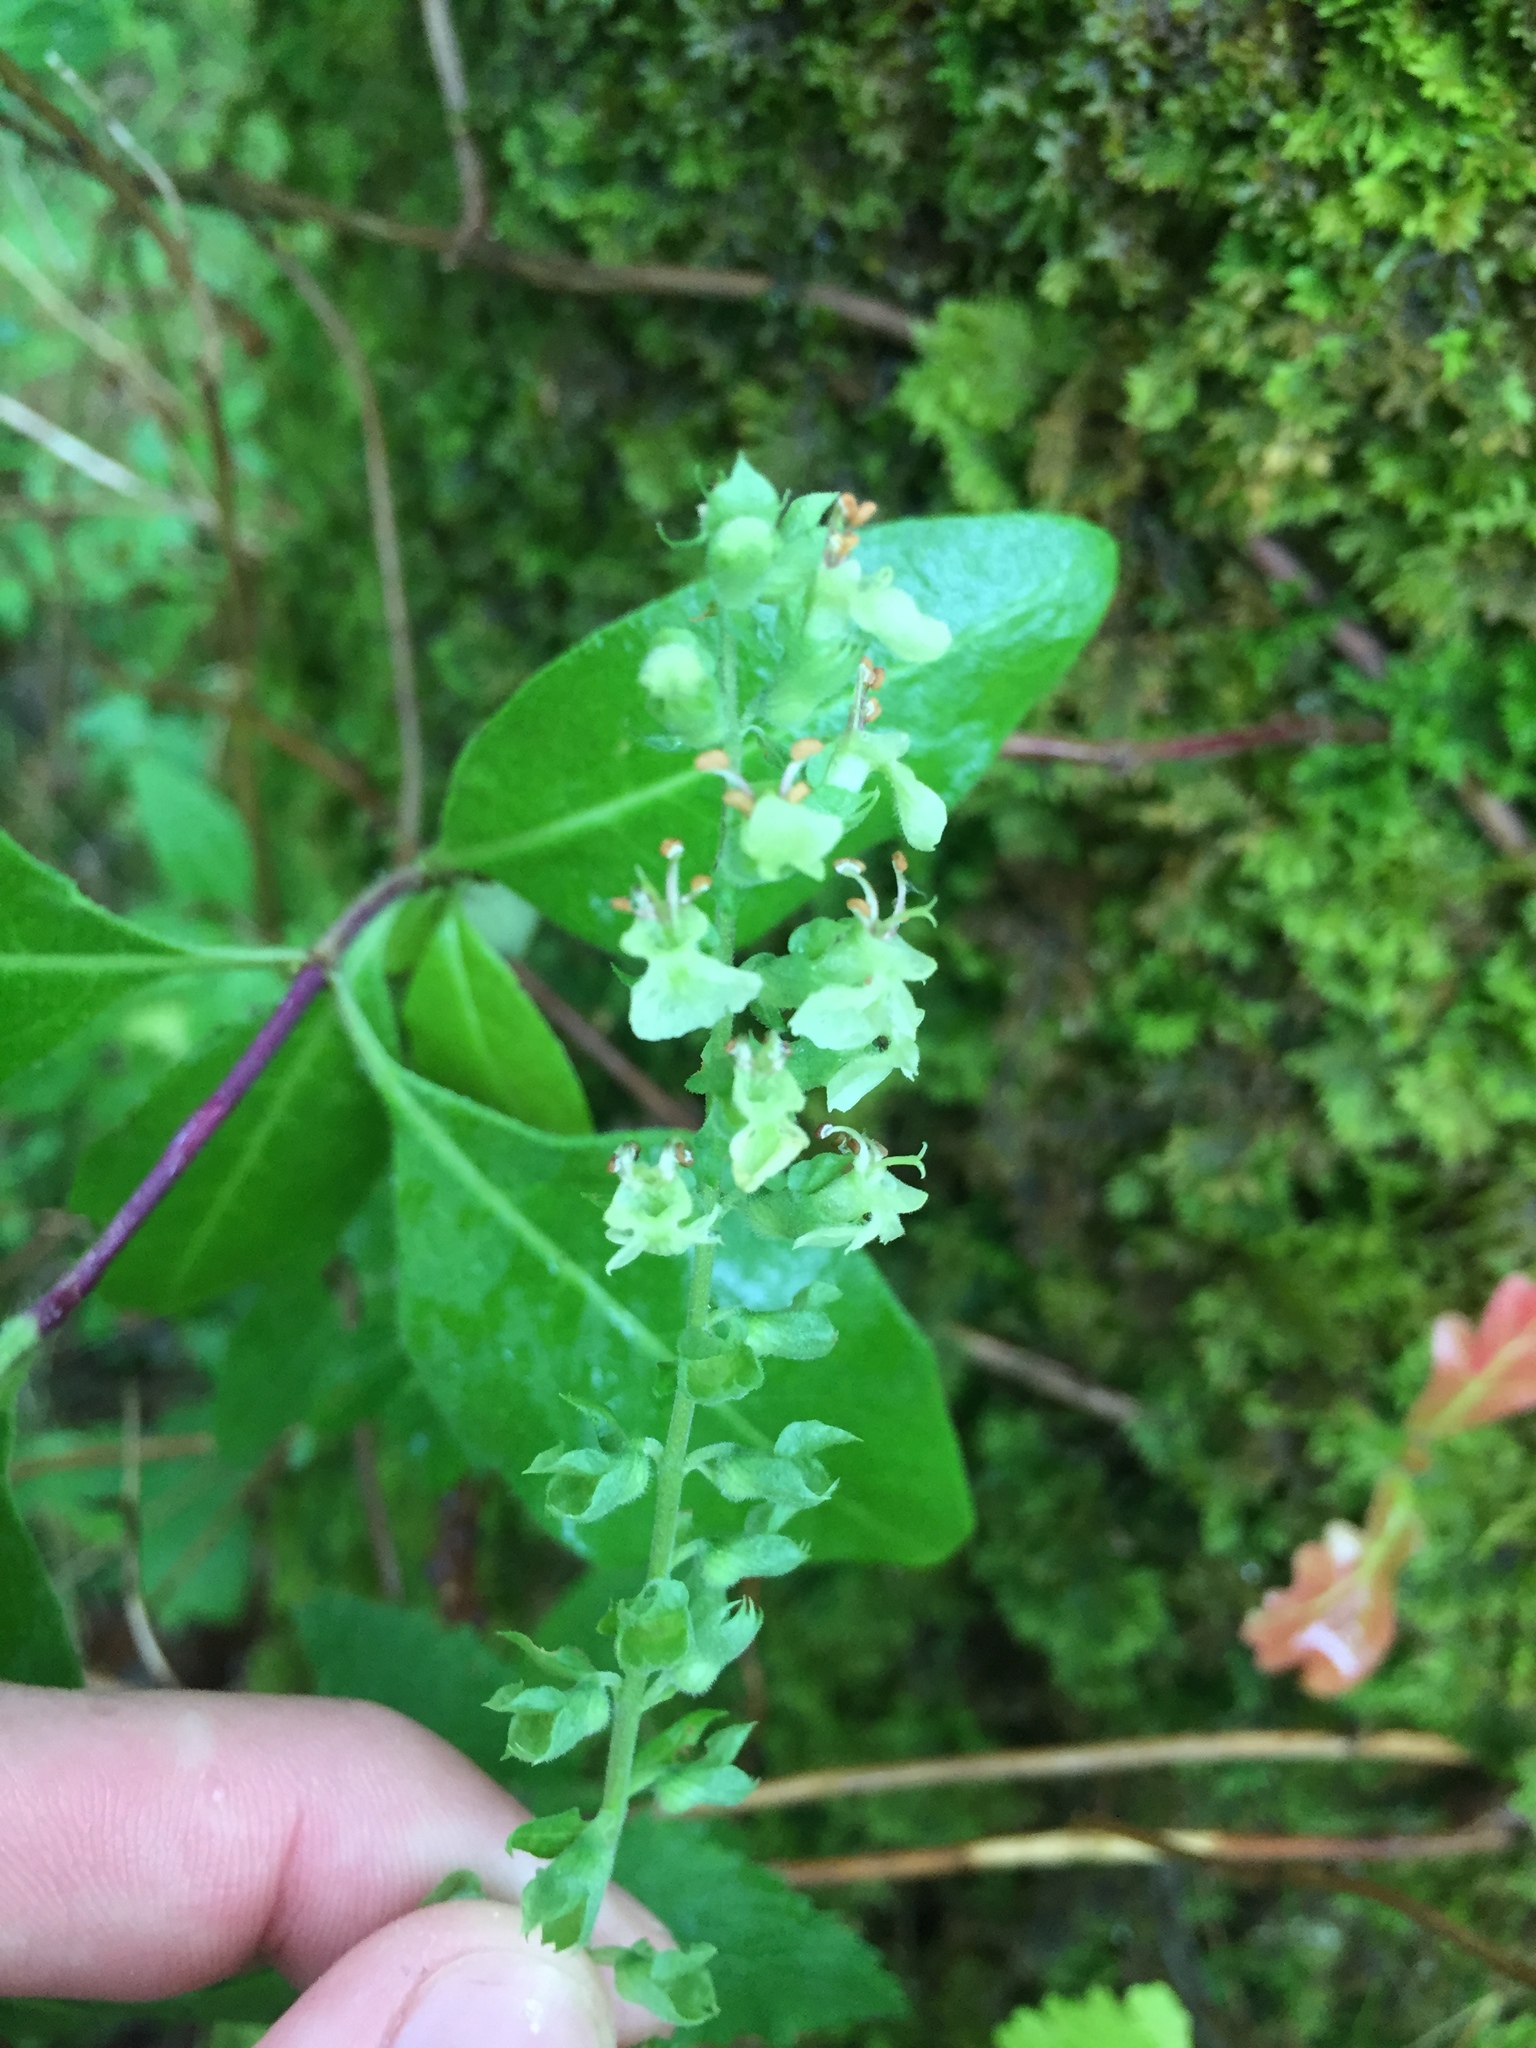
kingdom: Plantae
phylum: Tracheophyta
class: Magnoliopsida
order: Lamiales
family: Lamiaceae
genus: Teucrium
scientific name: Teucrium scorodonia
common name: Woodland germander
